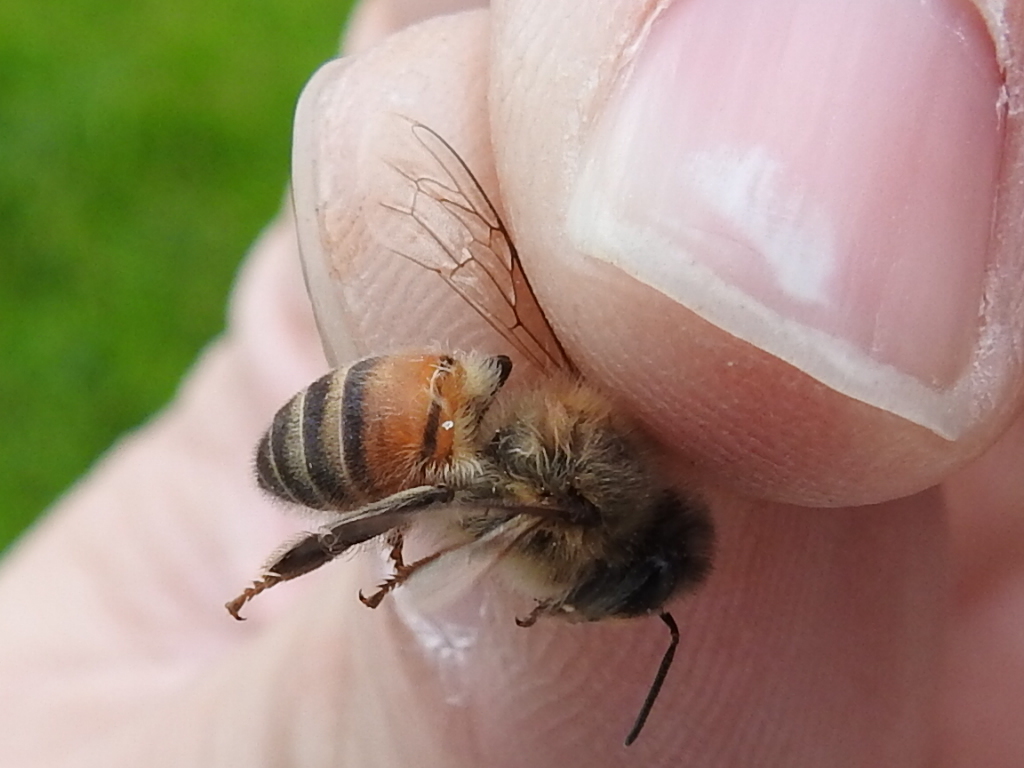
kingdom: Animalia
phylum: Arthropoda
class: Insecta
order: Hymenoptera
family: Apidae
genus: Apis
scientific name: Apis mellifera
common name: Honey bee
